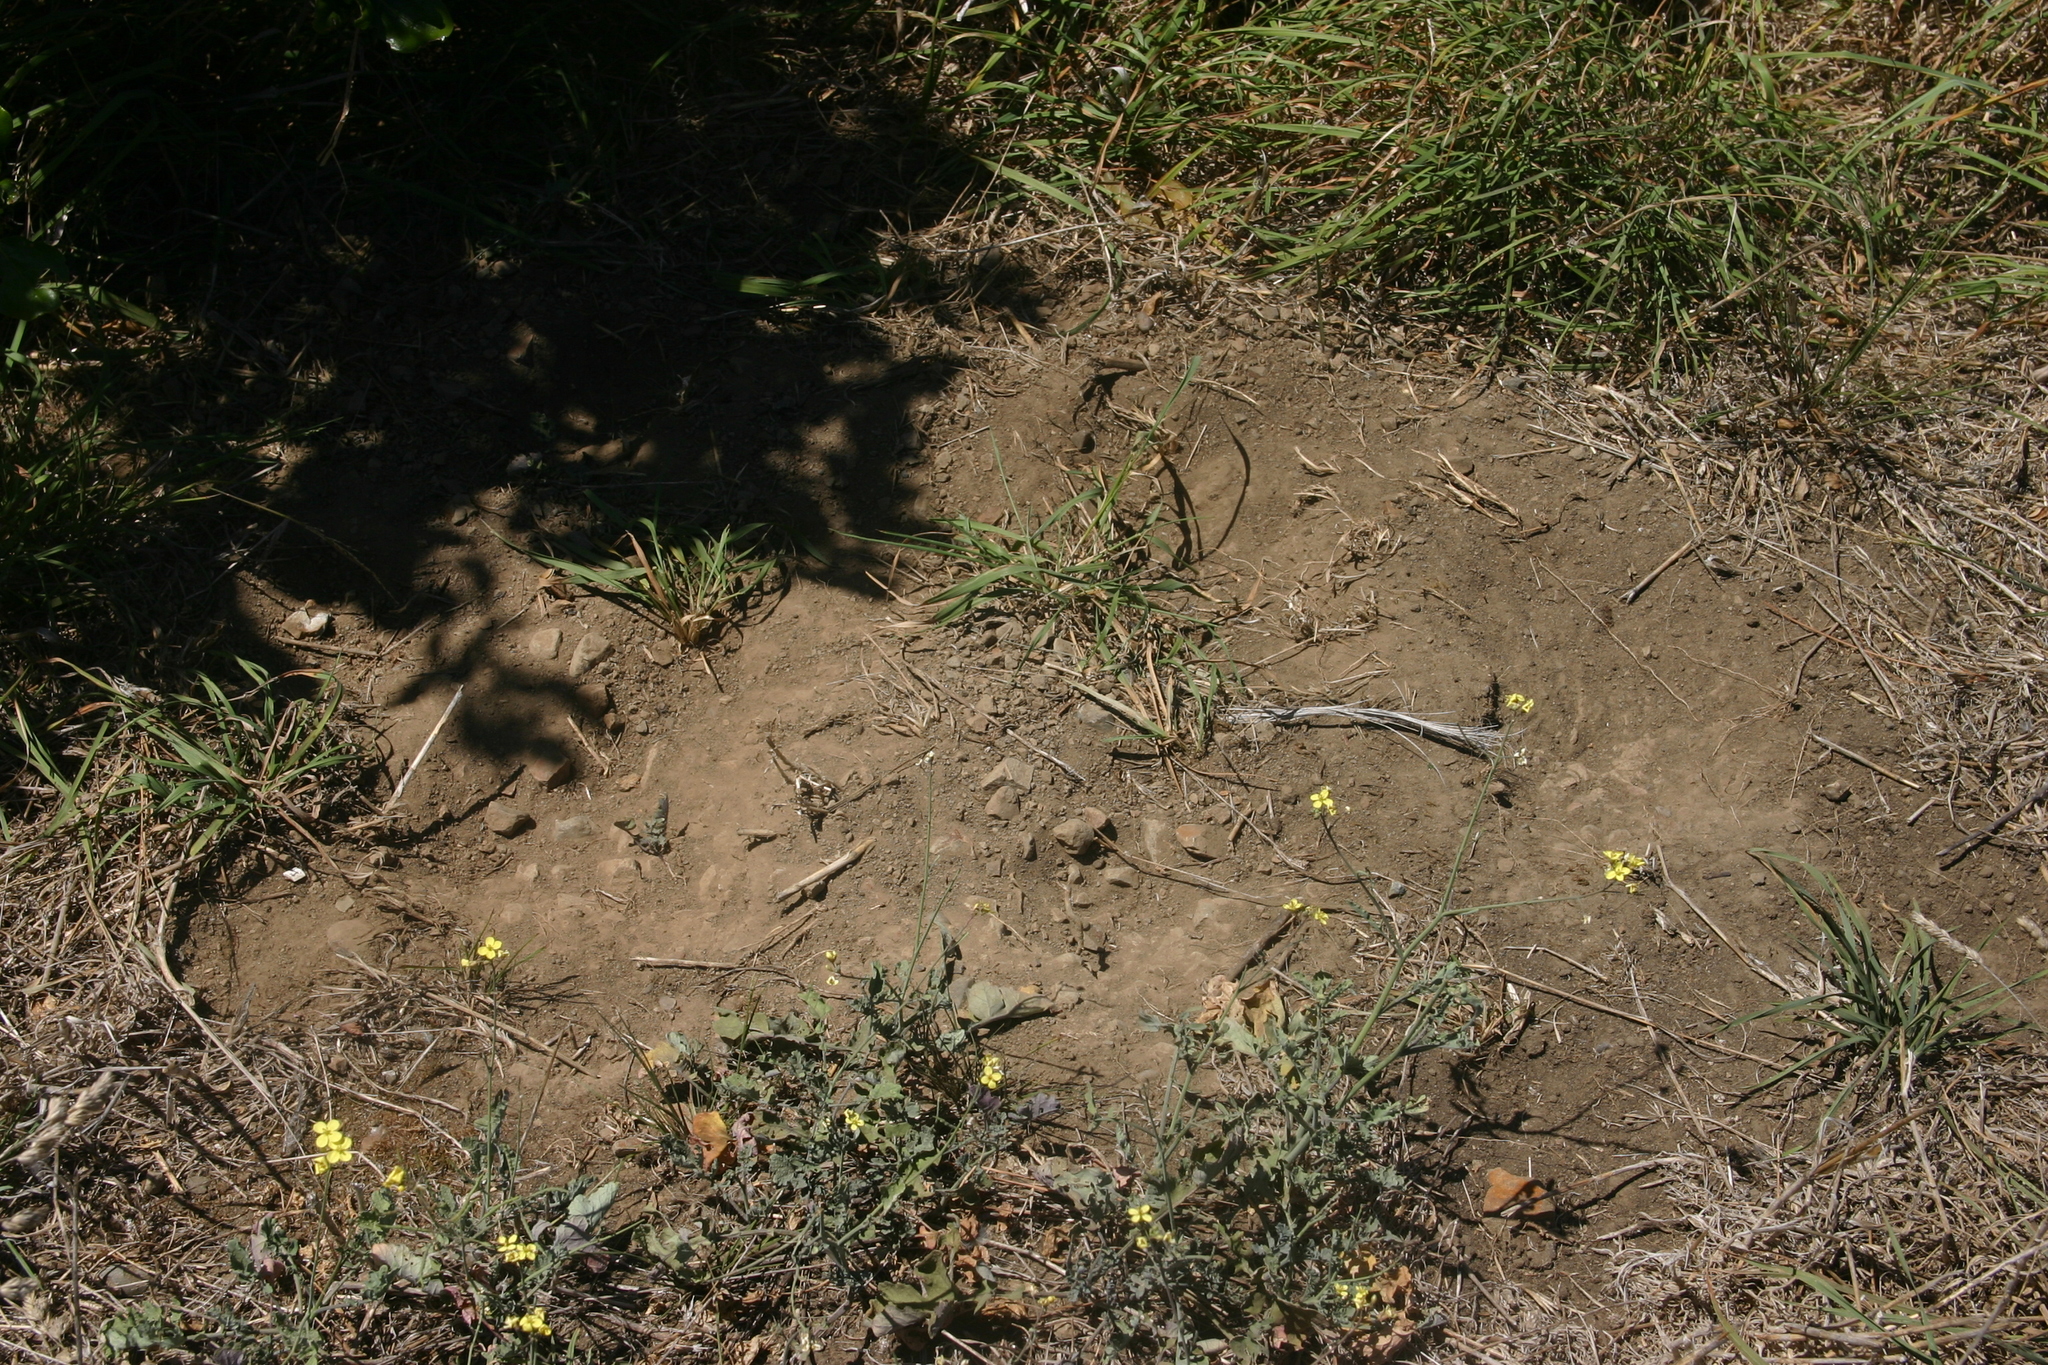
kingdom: Animalia
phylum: Chordata
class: Mammalia
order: Lagomorpha
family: Leporidae
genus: Oryctolagus
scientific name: Oryctolagus cuniculus
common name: European rabbit
